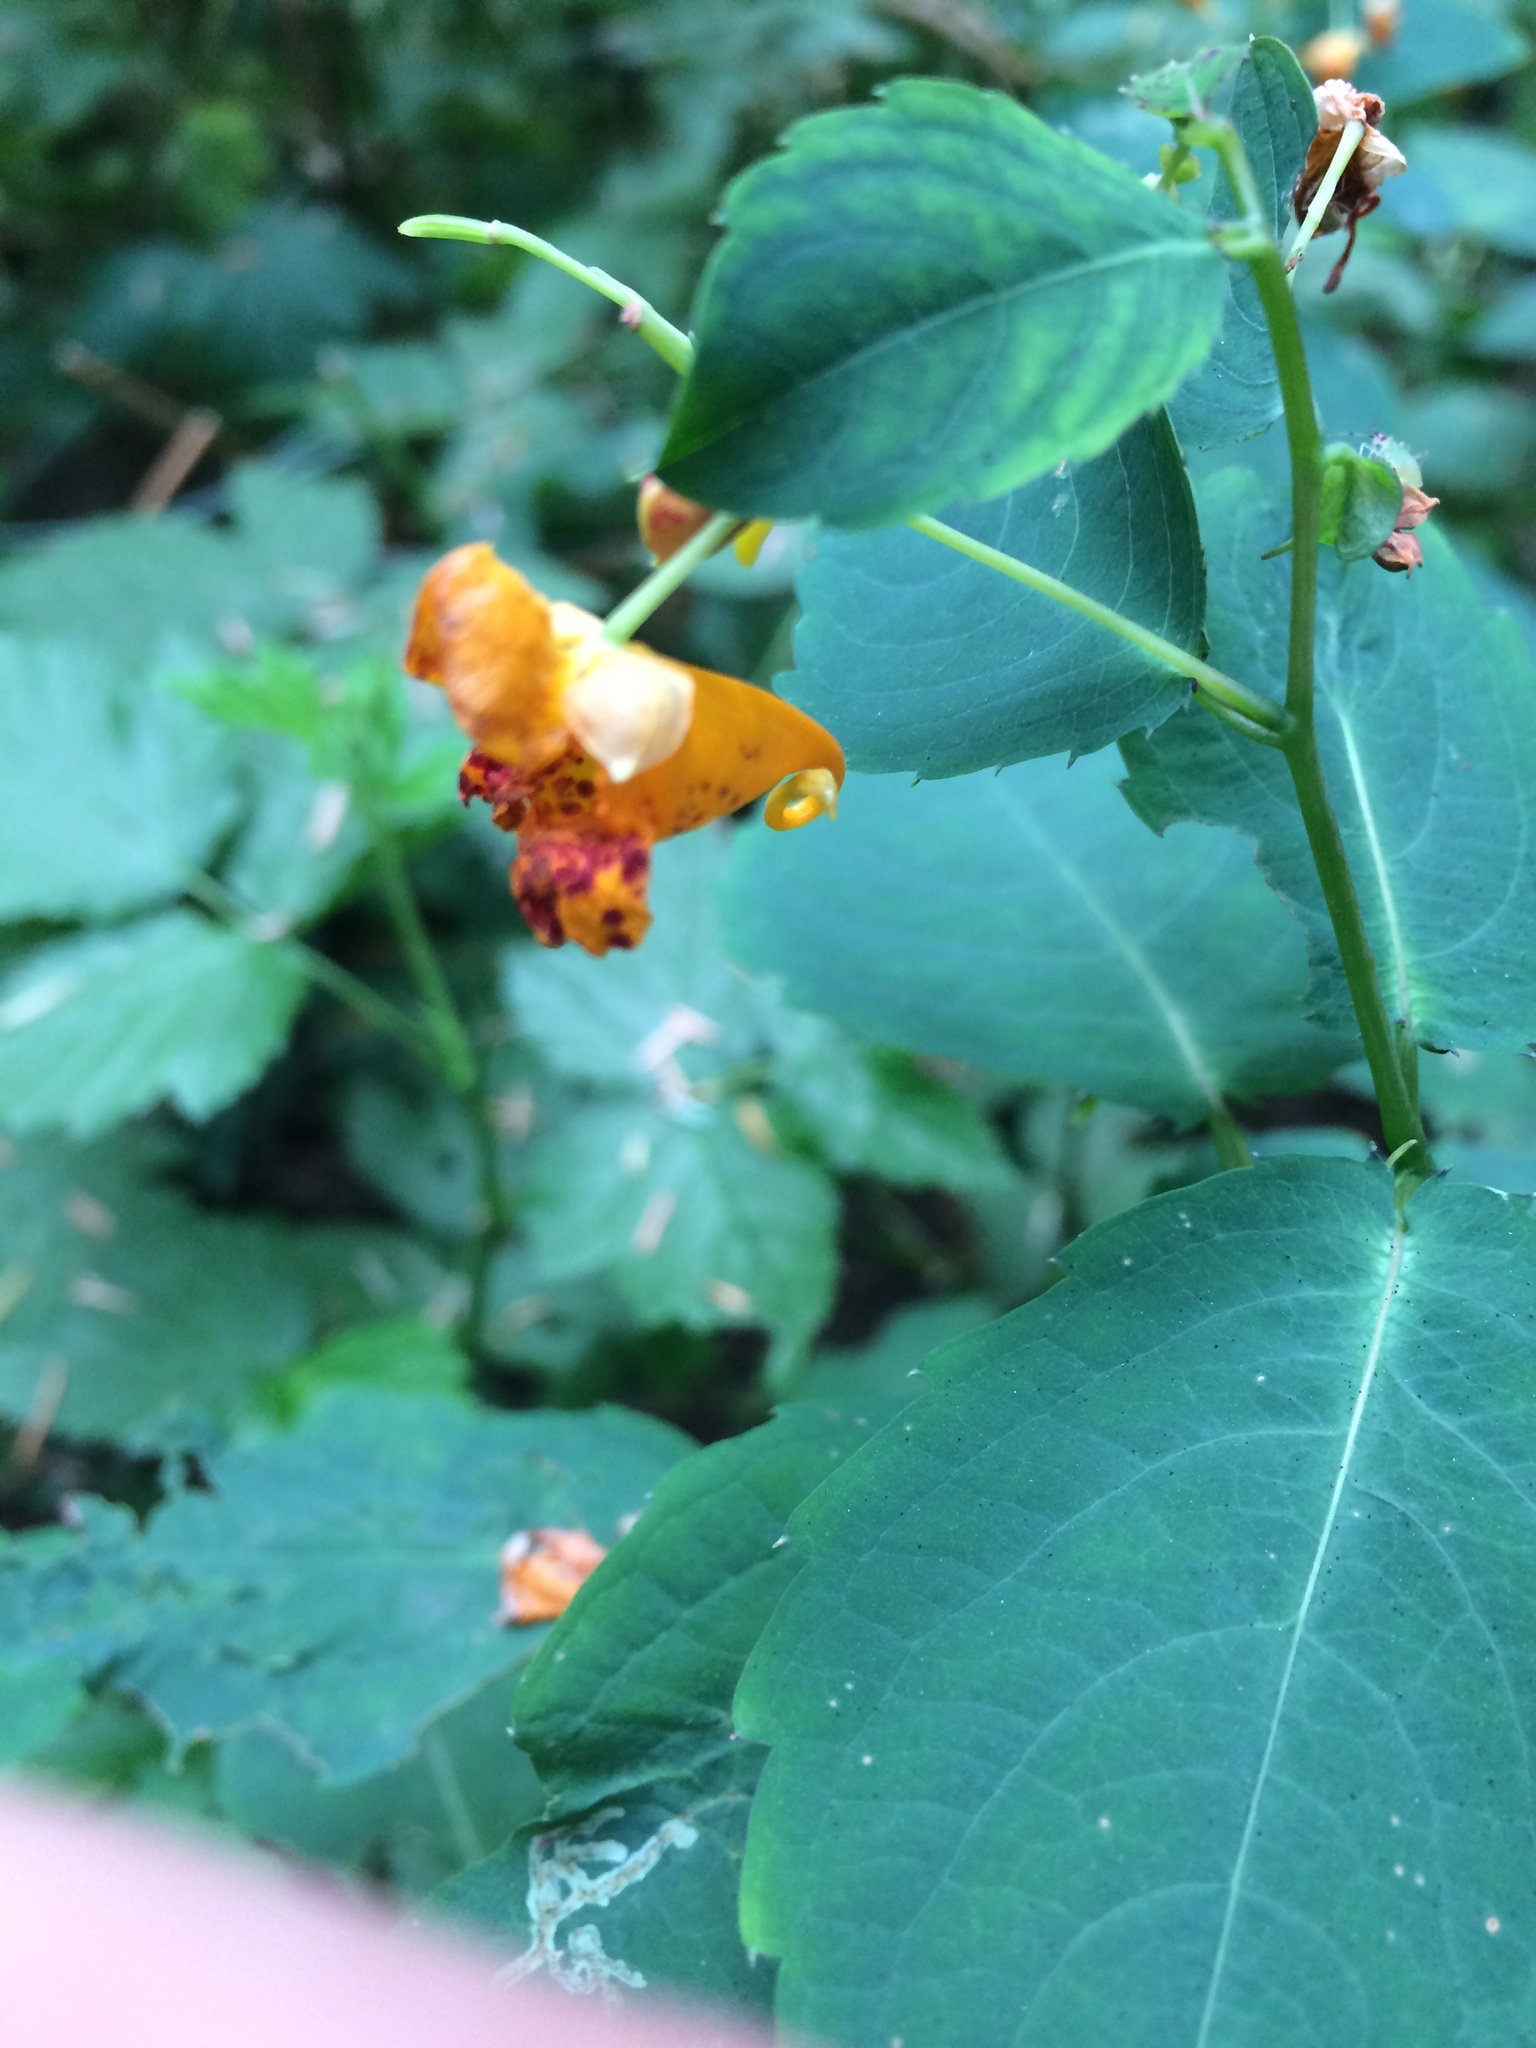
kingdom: Plantae
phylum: Tracheophyta
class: Magnoliopsida
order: Ericales
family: Balsaminaceae
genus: Impatiens
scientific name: Impatiens capensis
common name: Orange balsam
